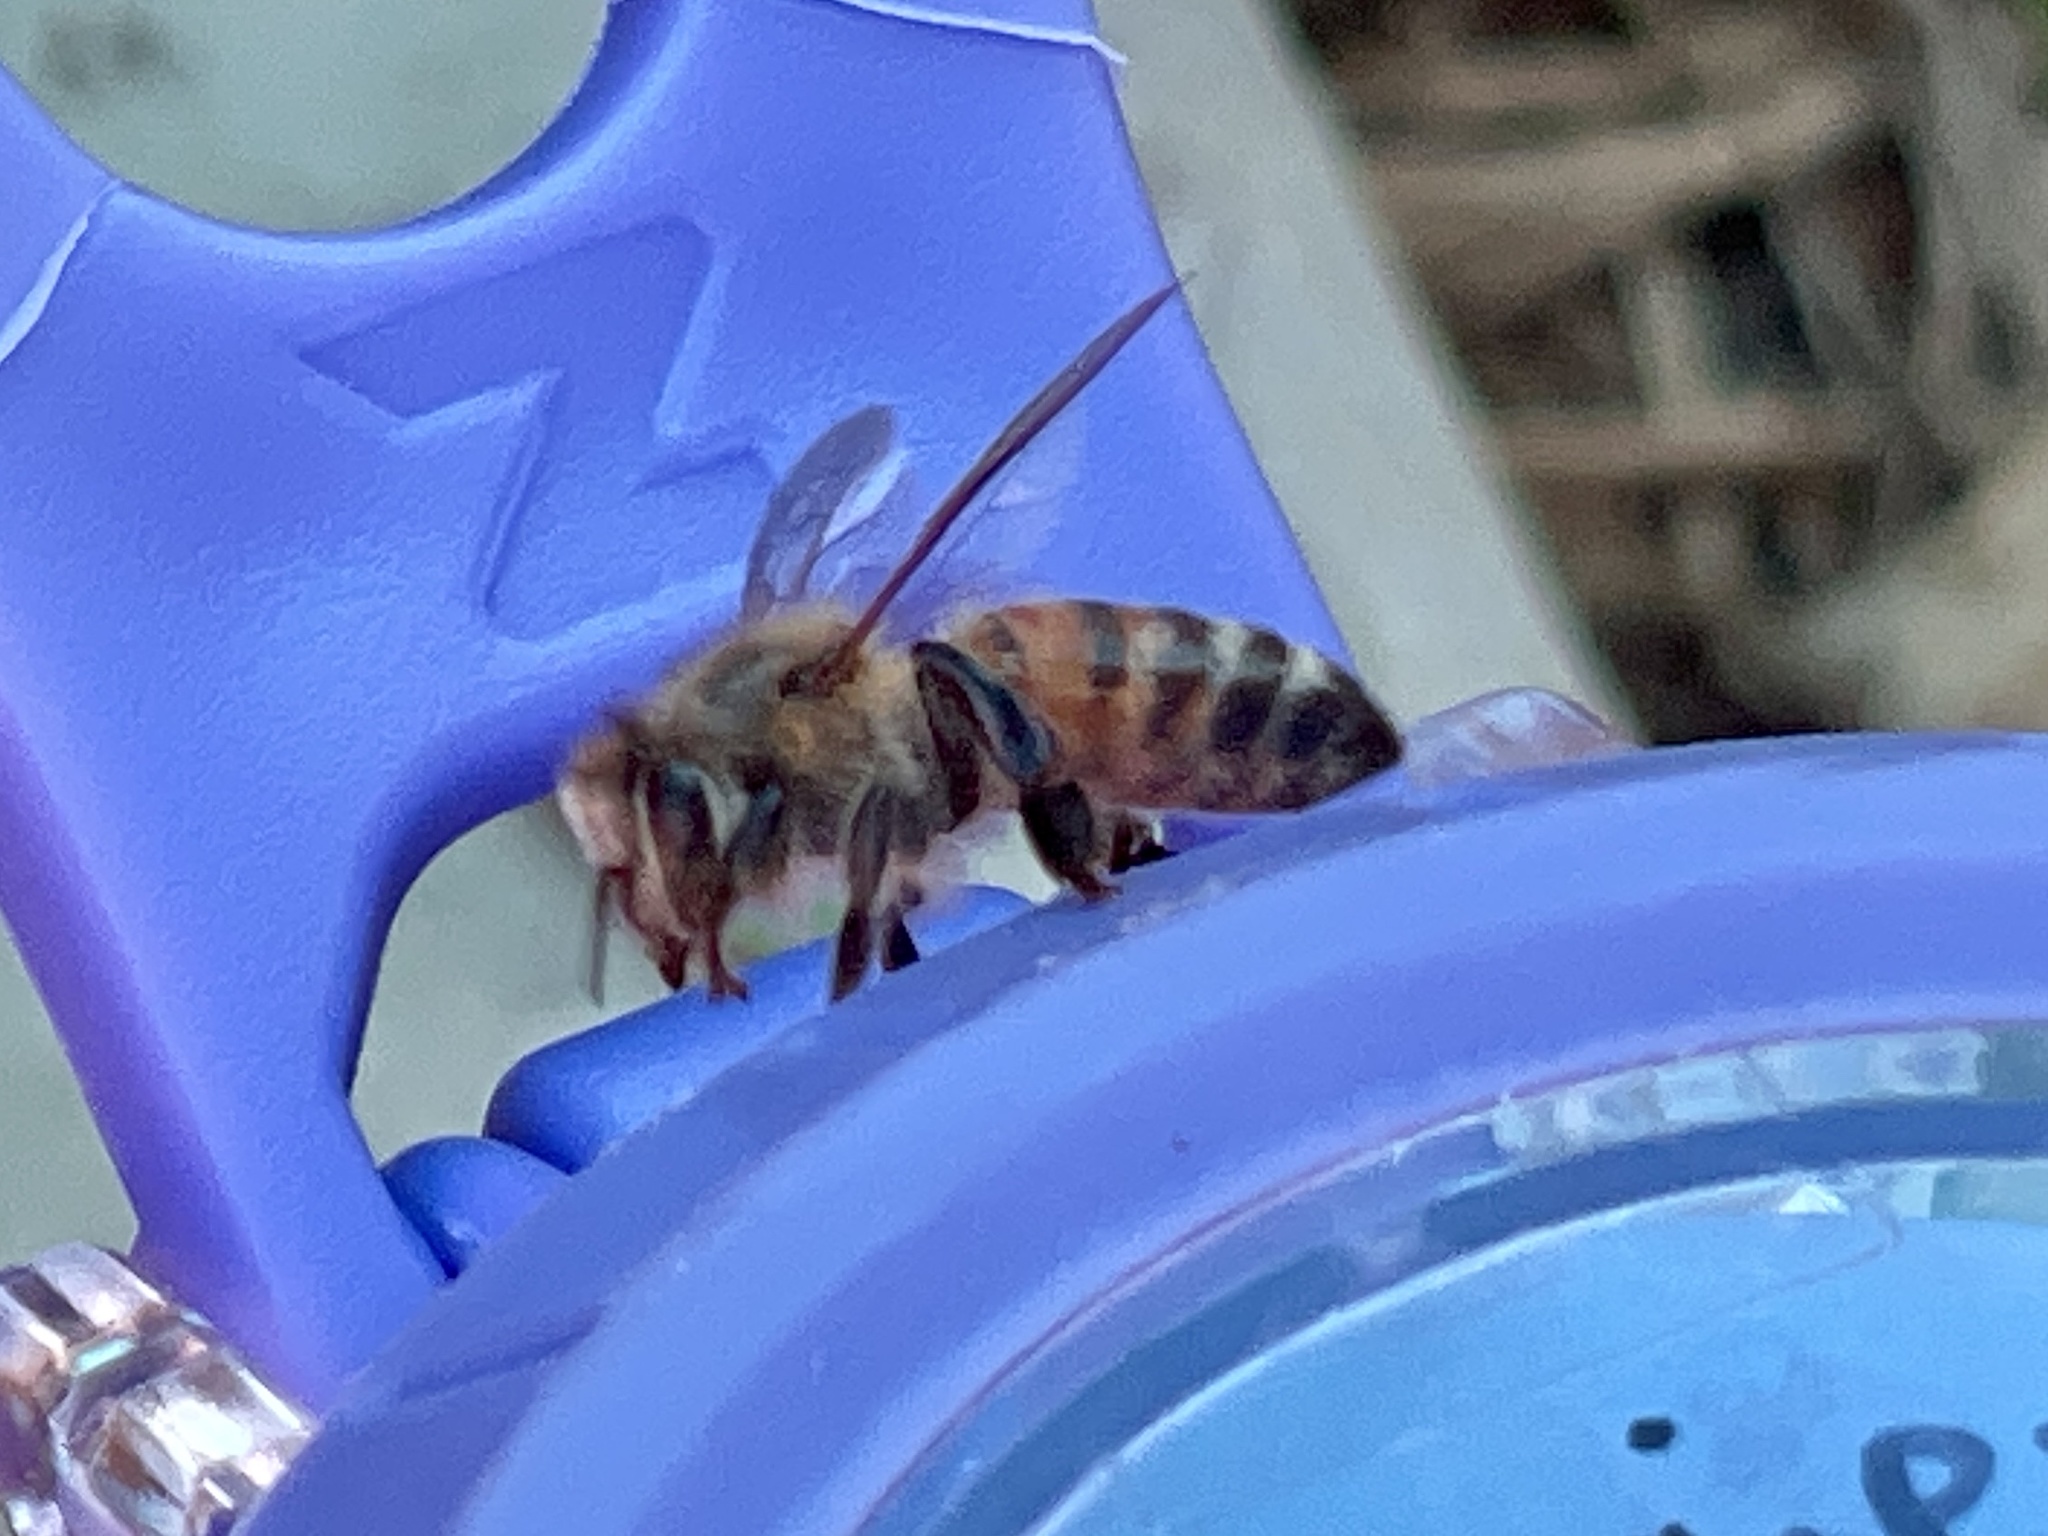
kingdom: Animalia
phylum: Arthropoda
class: Insecta
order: Hymenoptera
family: Apidae
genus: Apis
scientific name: Apis mellifera
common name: Honey bee
